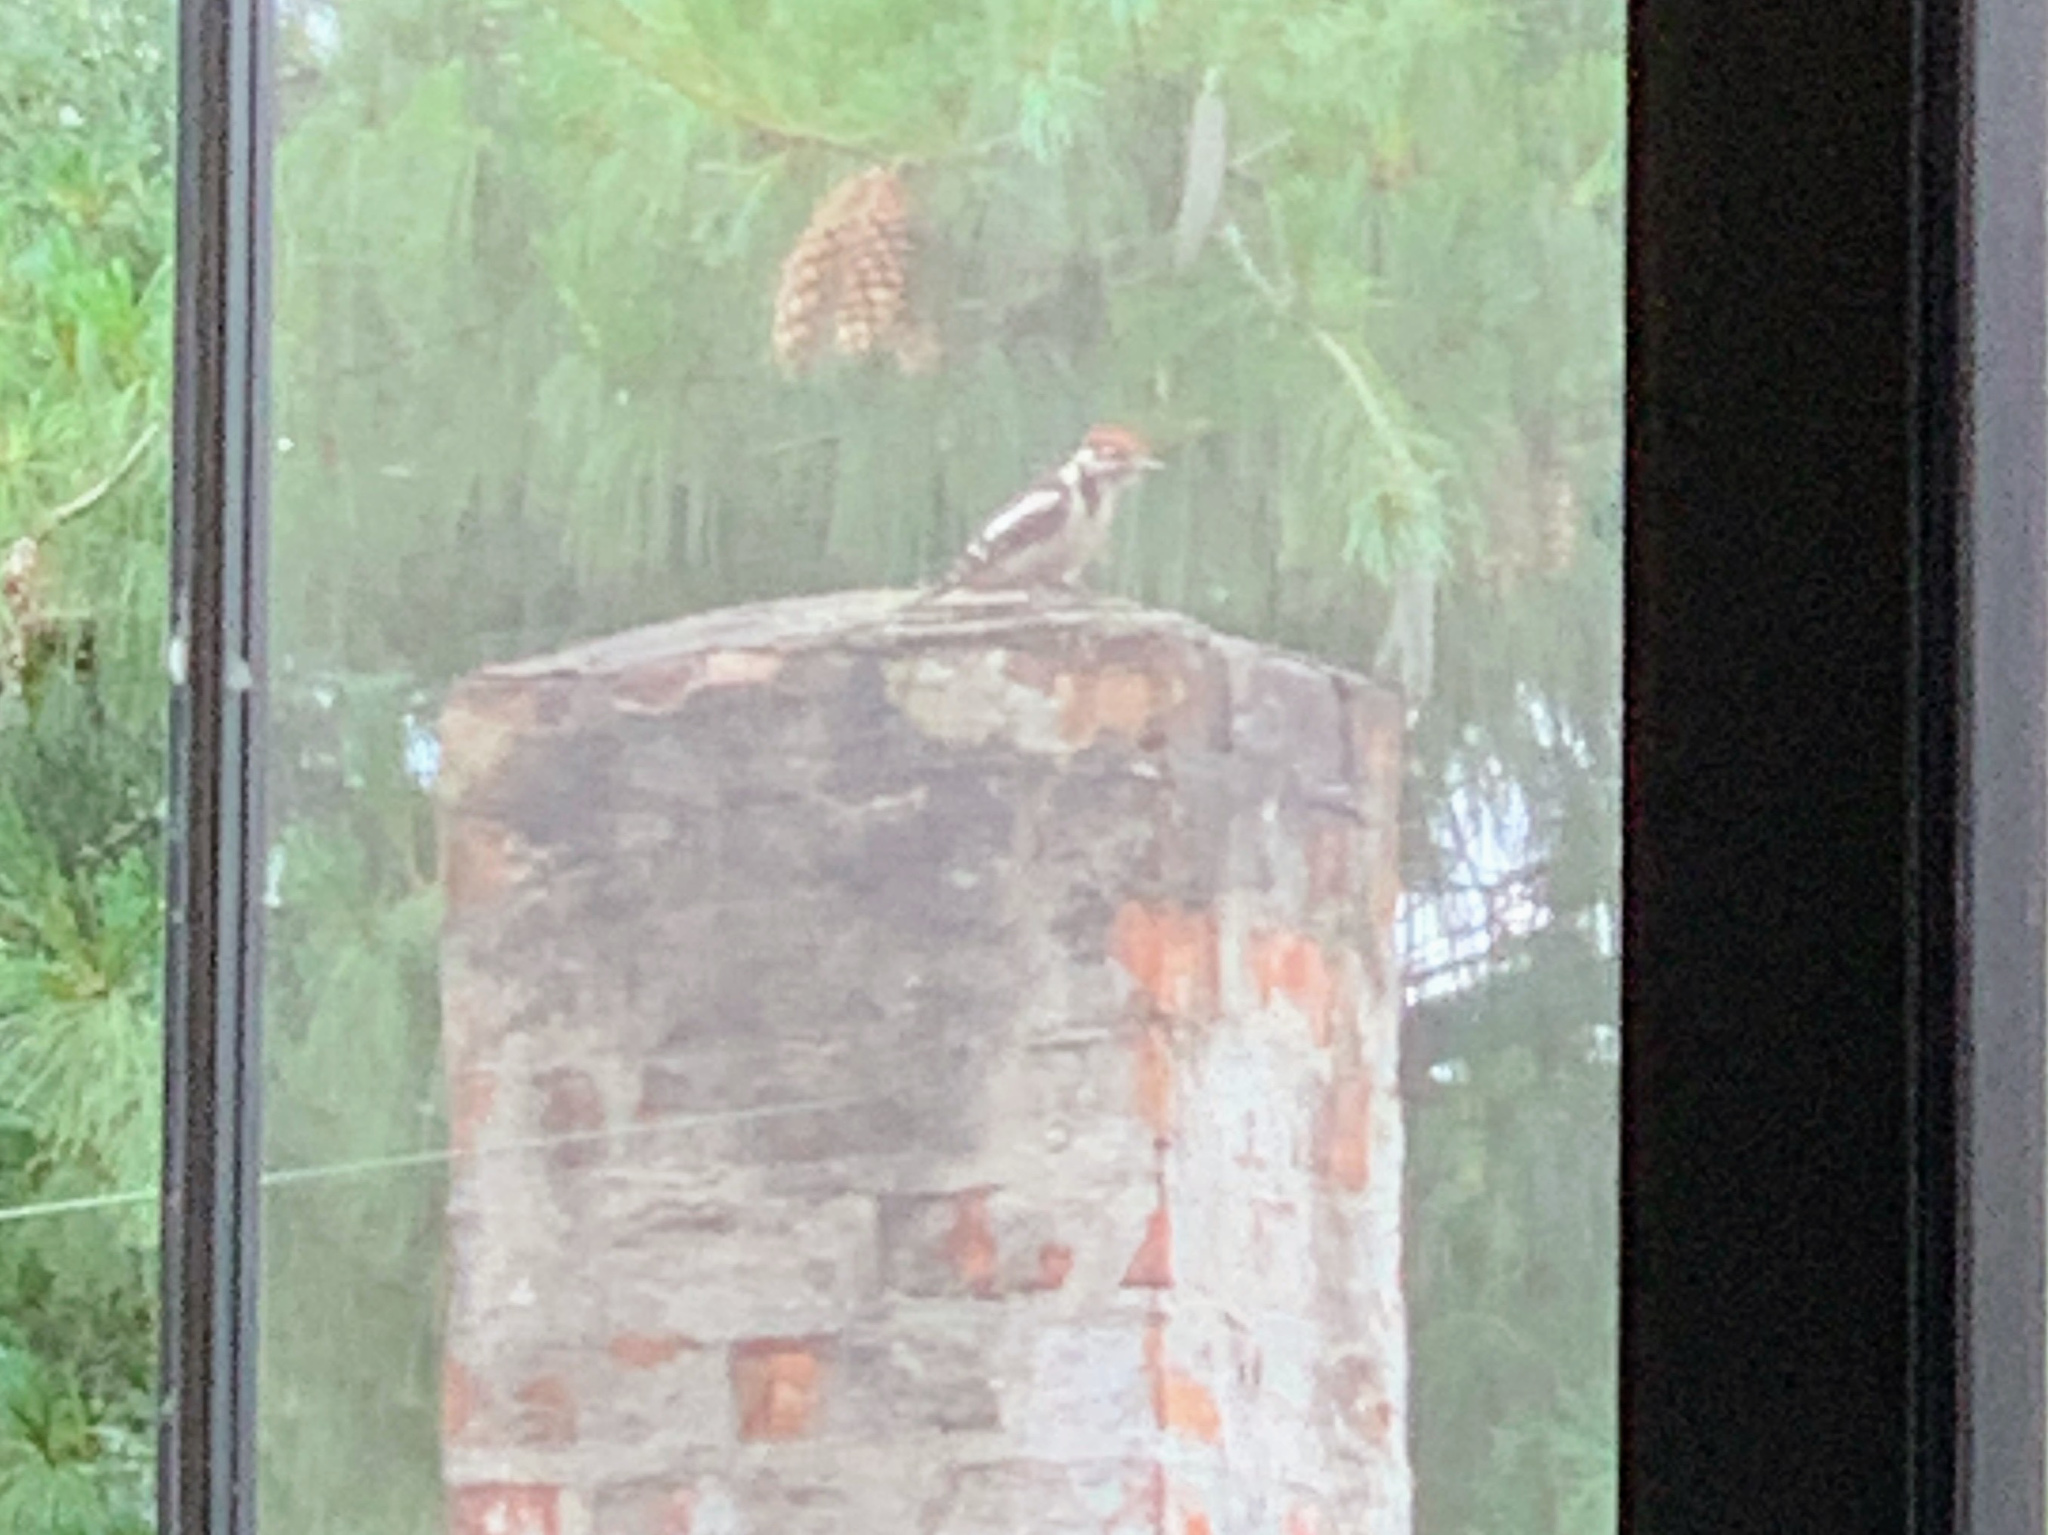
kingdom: Animalia
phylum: Chordata
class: Aves
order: Piciformes
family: Picidae
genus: Dendrocopos
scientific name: Dendrocopos major
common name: Great spotted woodpecker
